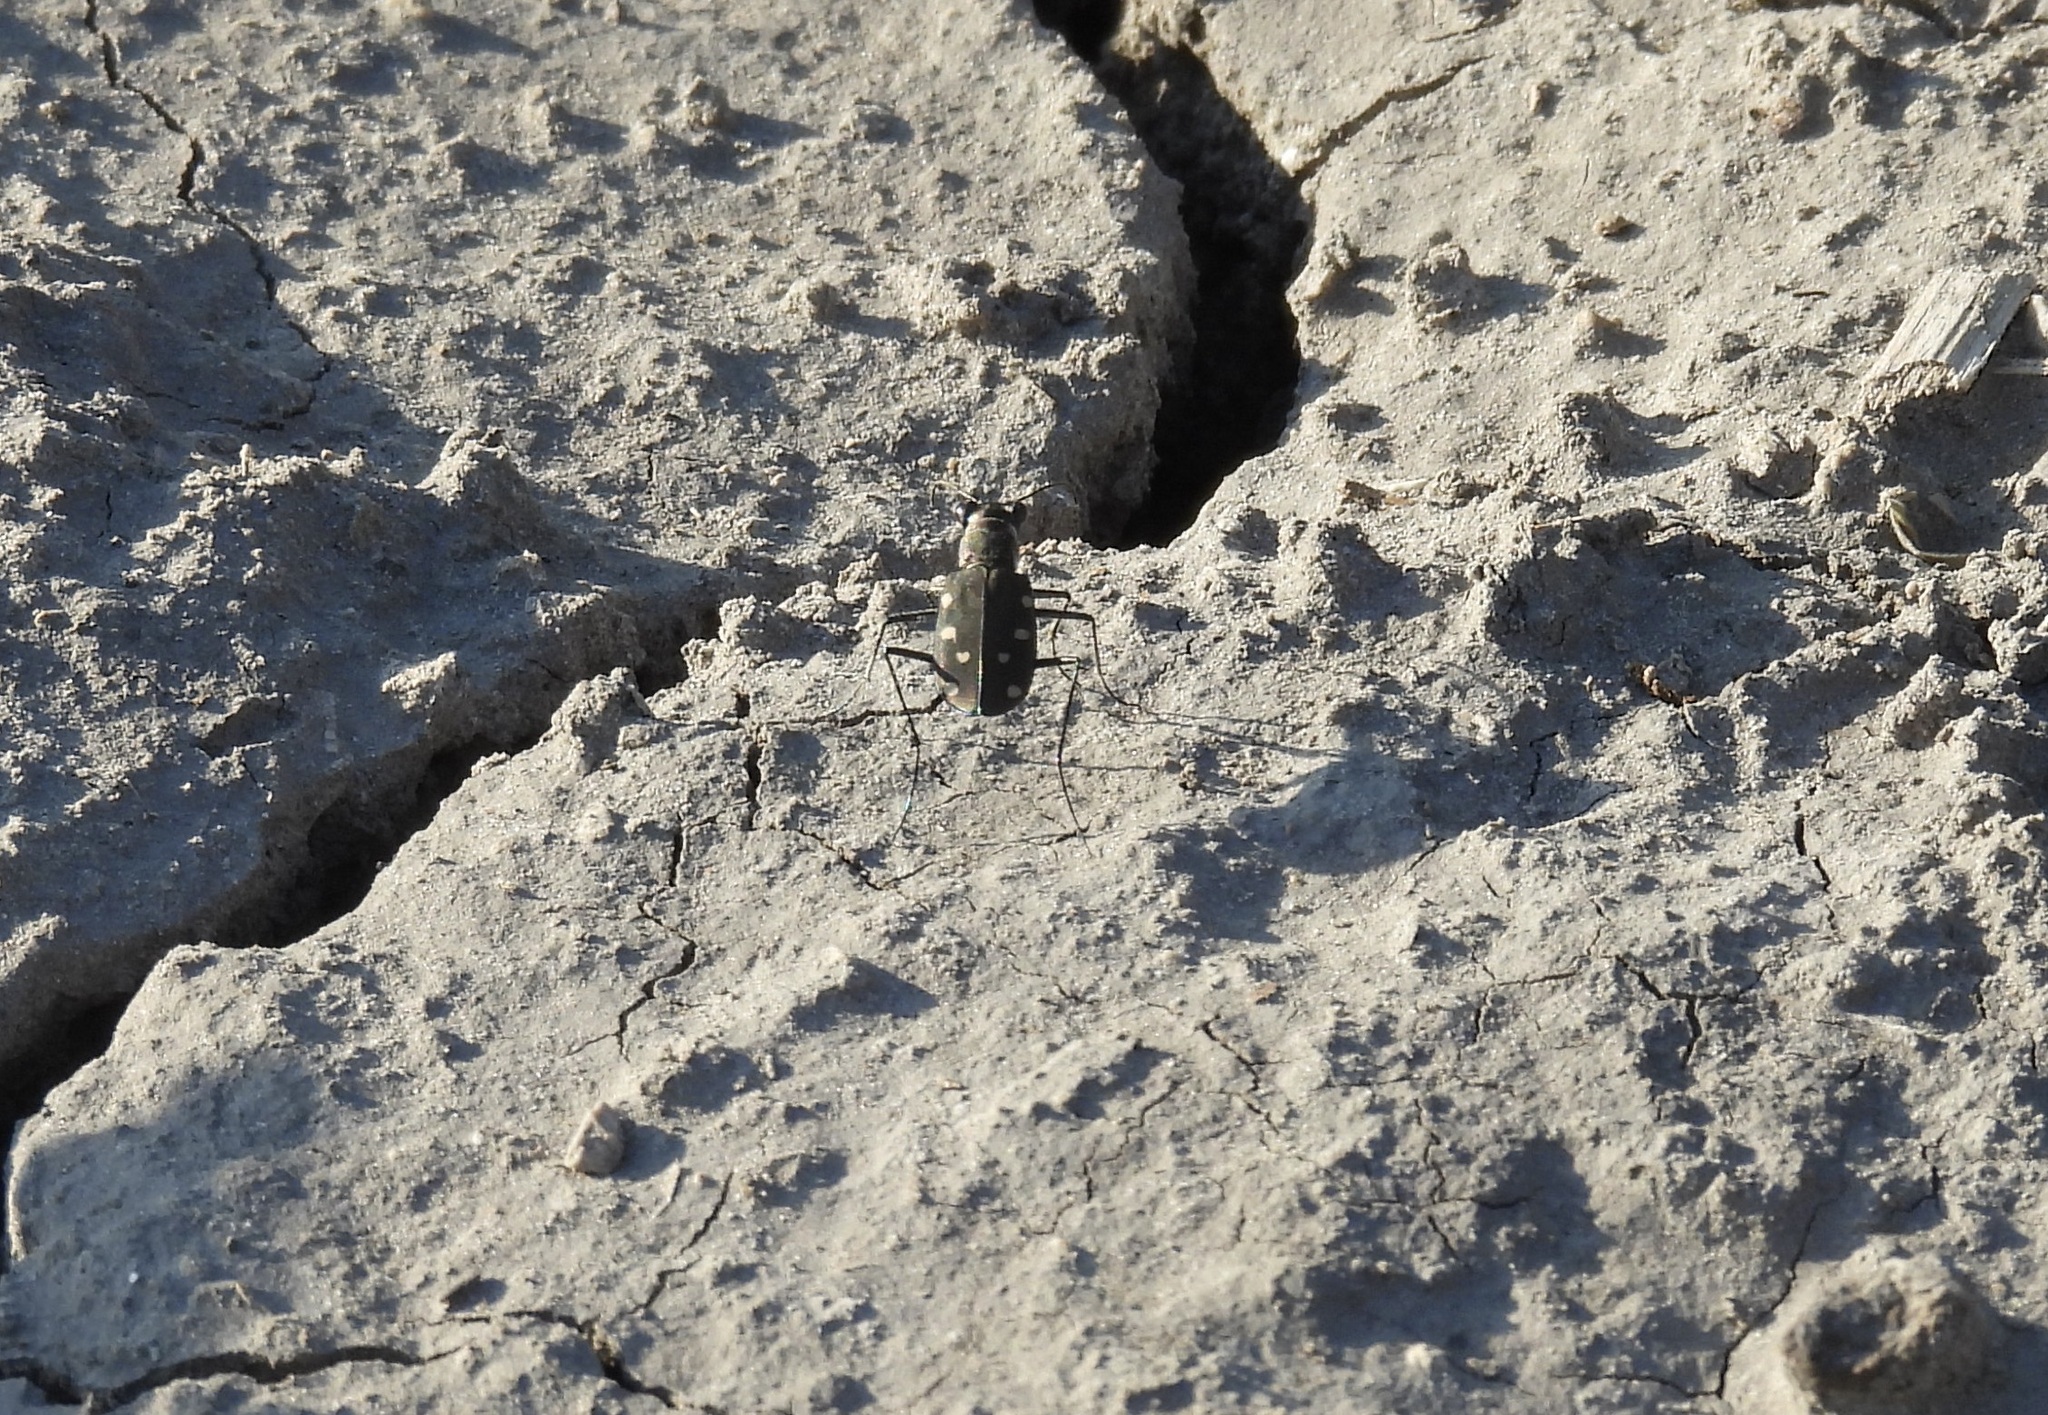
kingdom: Animalia
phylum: Arthropoda
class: Insecta
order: Coleoptera
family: Carabidae
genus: Cicindela
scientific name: Cicindela ocellata
